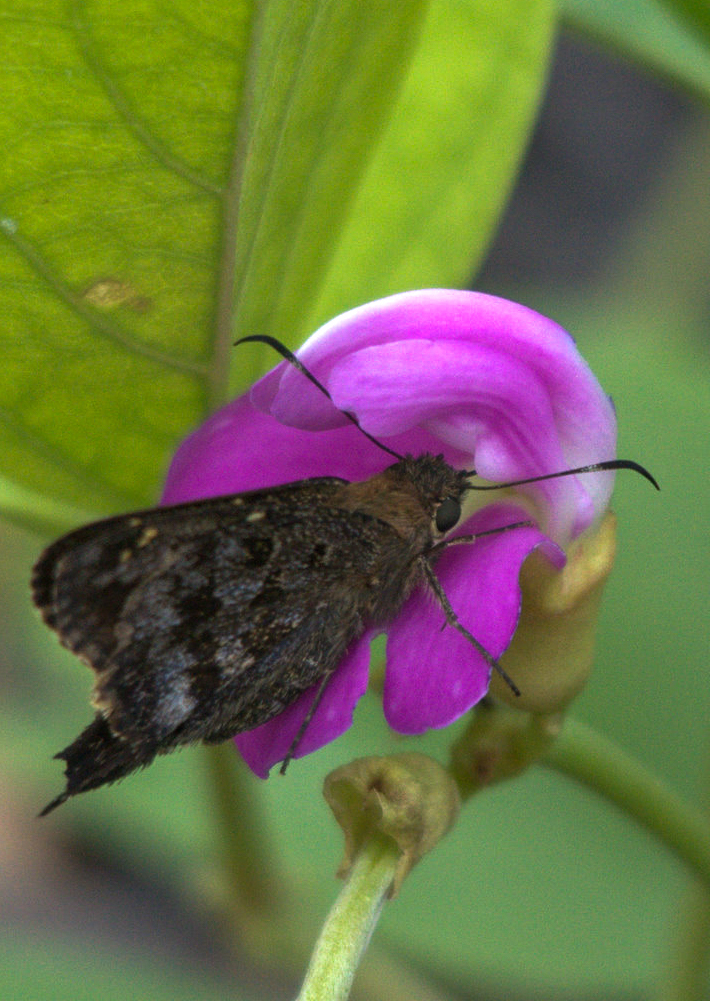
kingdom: Animalia
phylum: Arthropoda
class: Insecta
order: Lepidoptera
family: Hesperiidae
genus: Thorybes
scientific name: Thorybes
